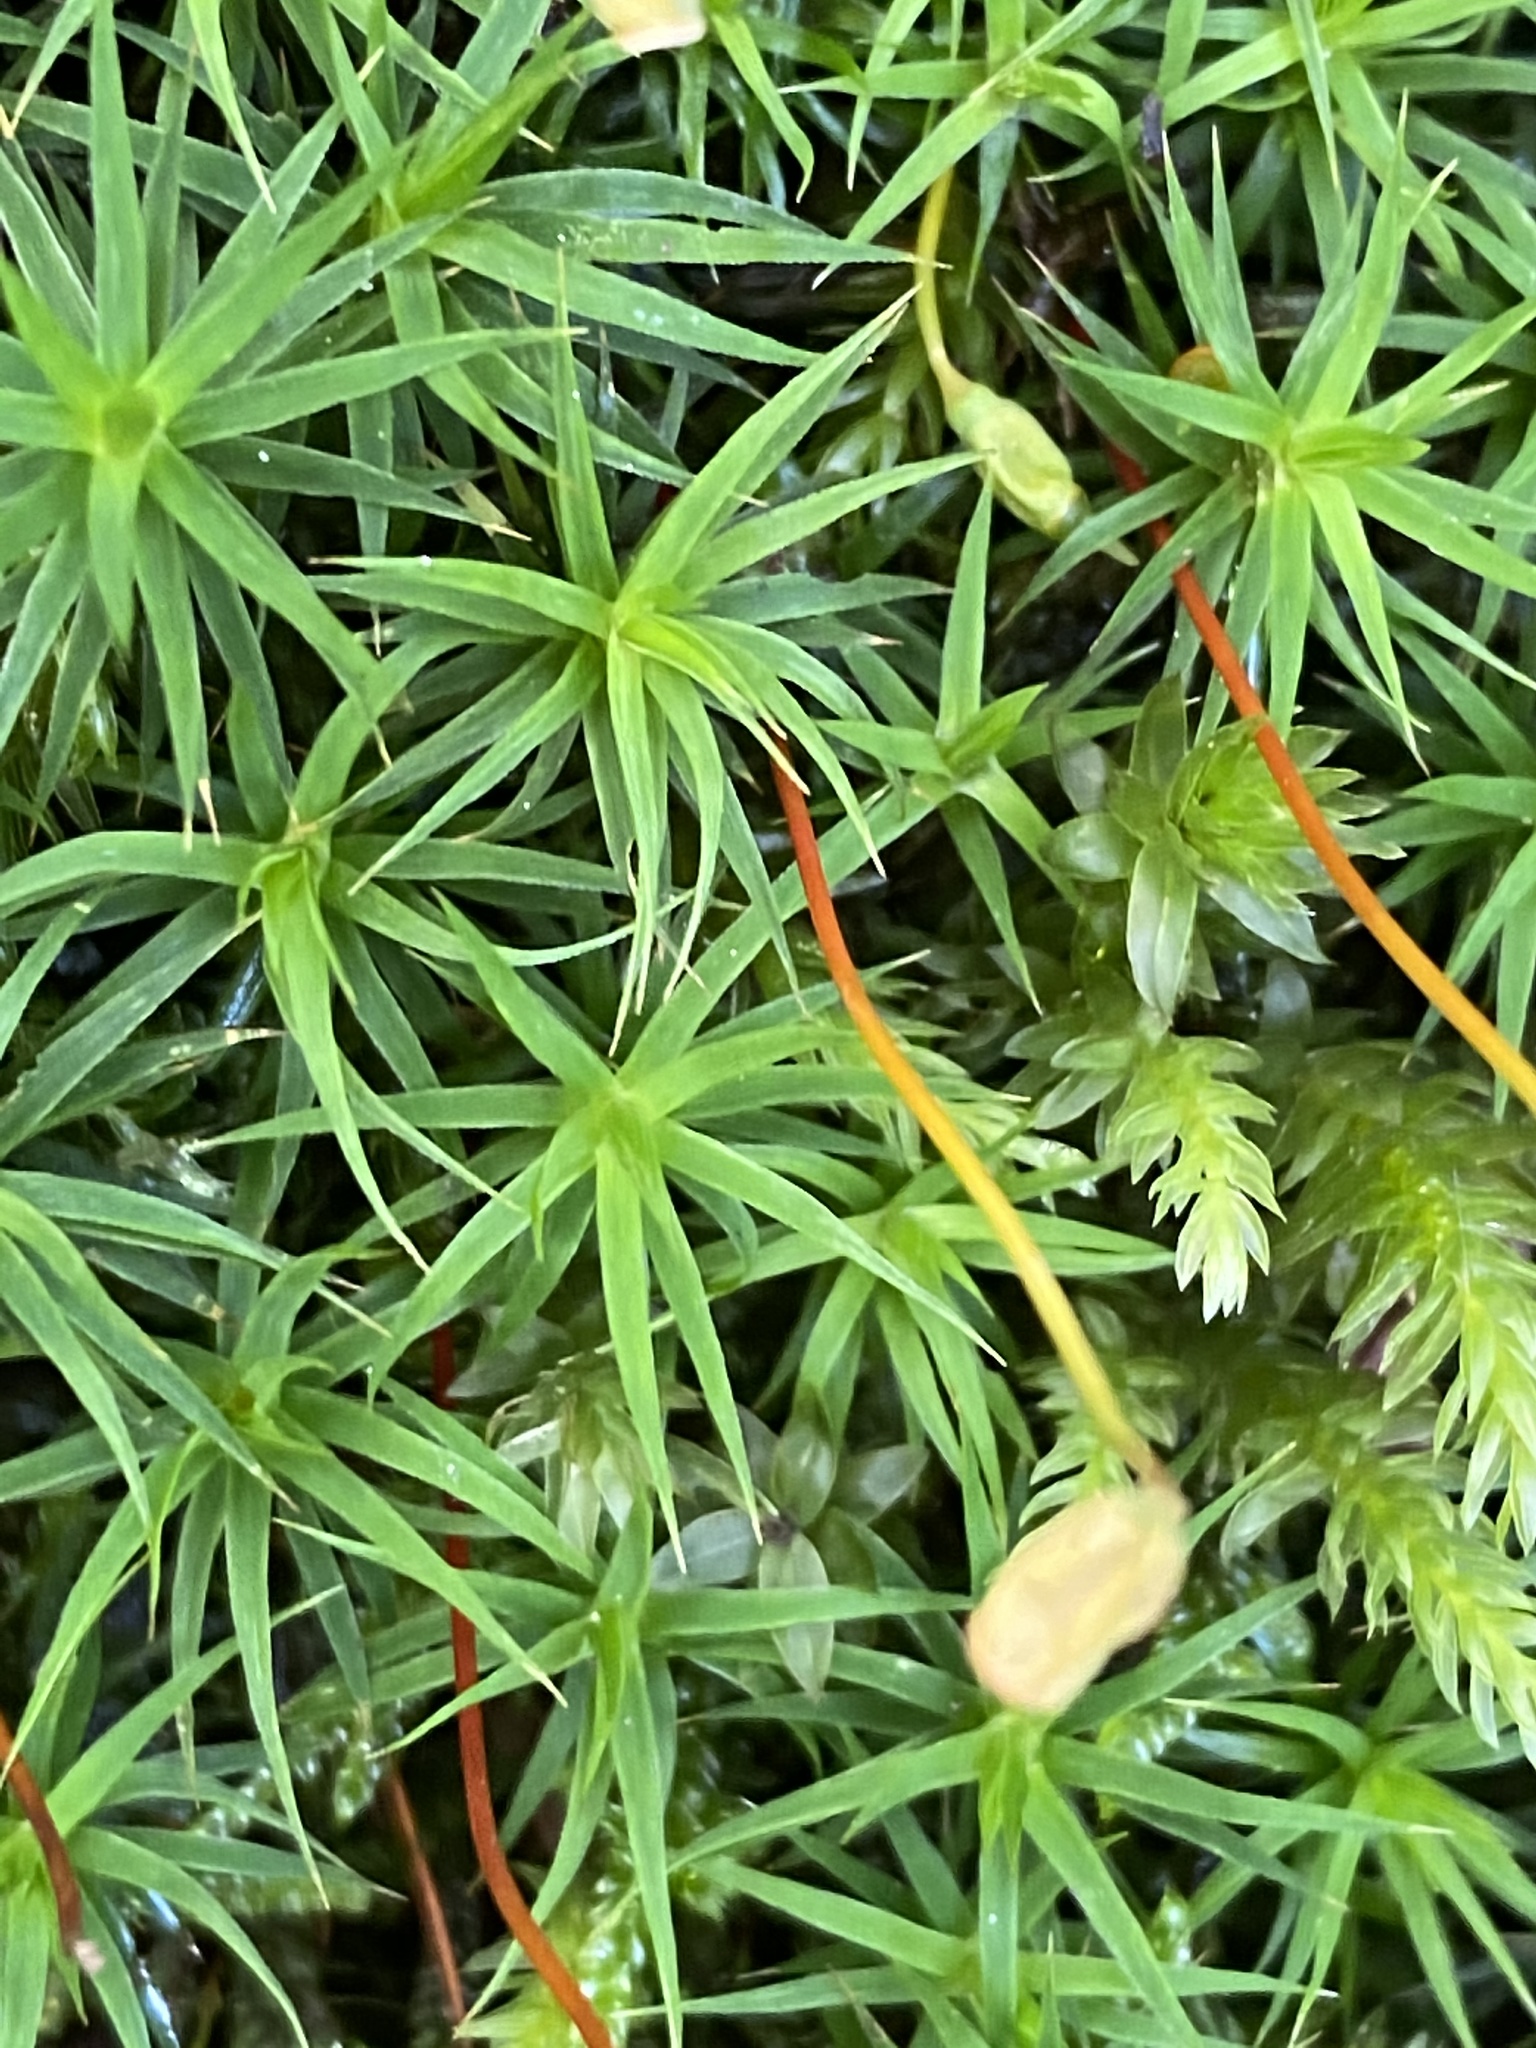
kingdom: Plantae
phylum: Bryophyta
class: Polytrichopsida
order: Polytrichales
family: Polytrichaceae
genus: Polytrichum
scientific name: Polytrichum formosum
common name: Bank haircap moss
